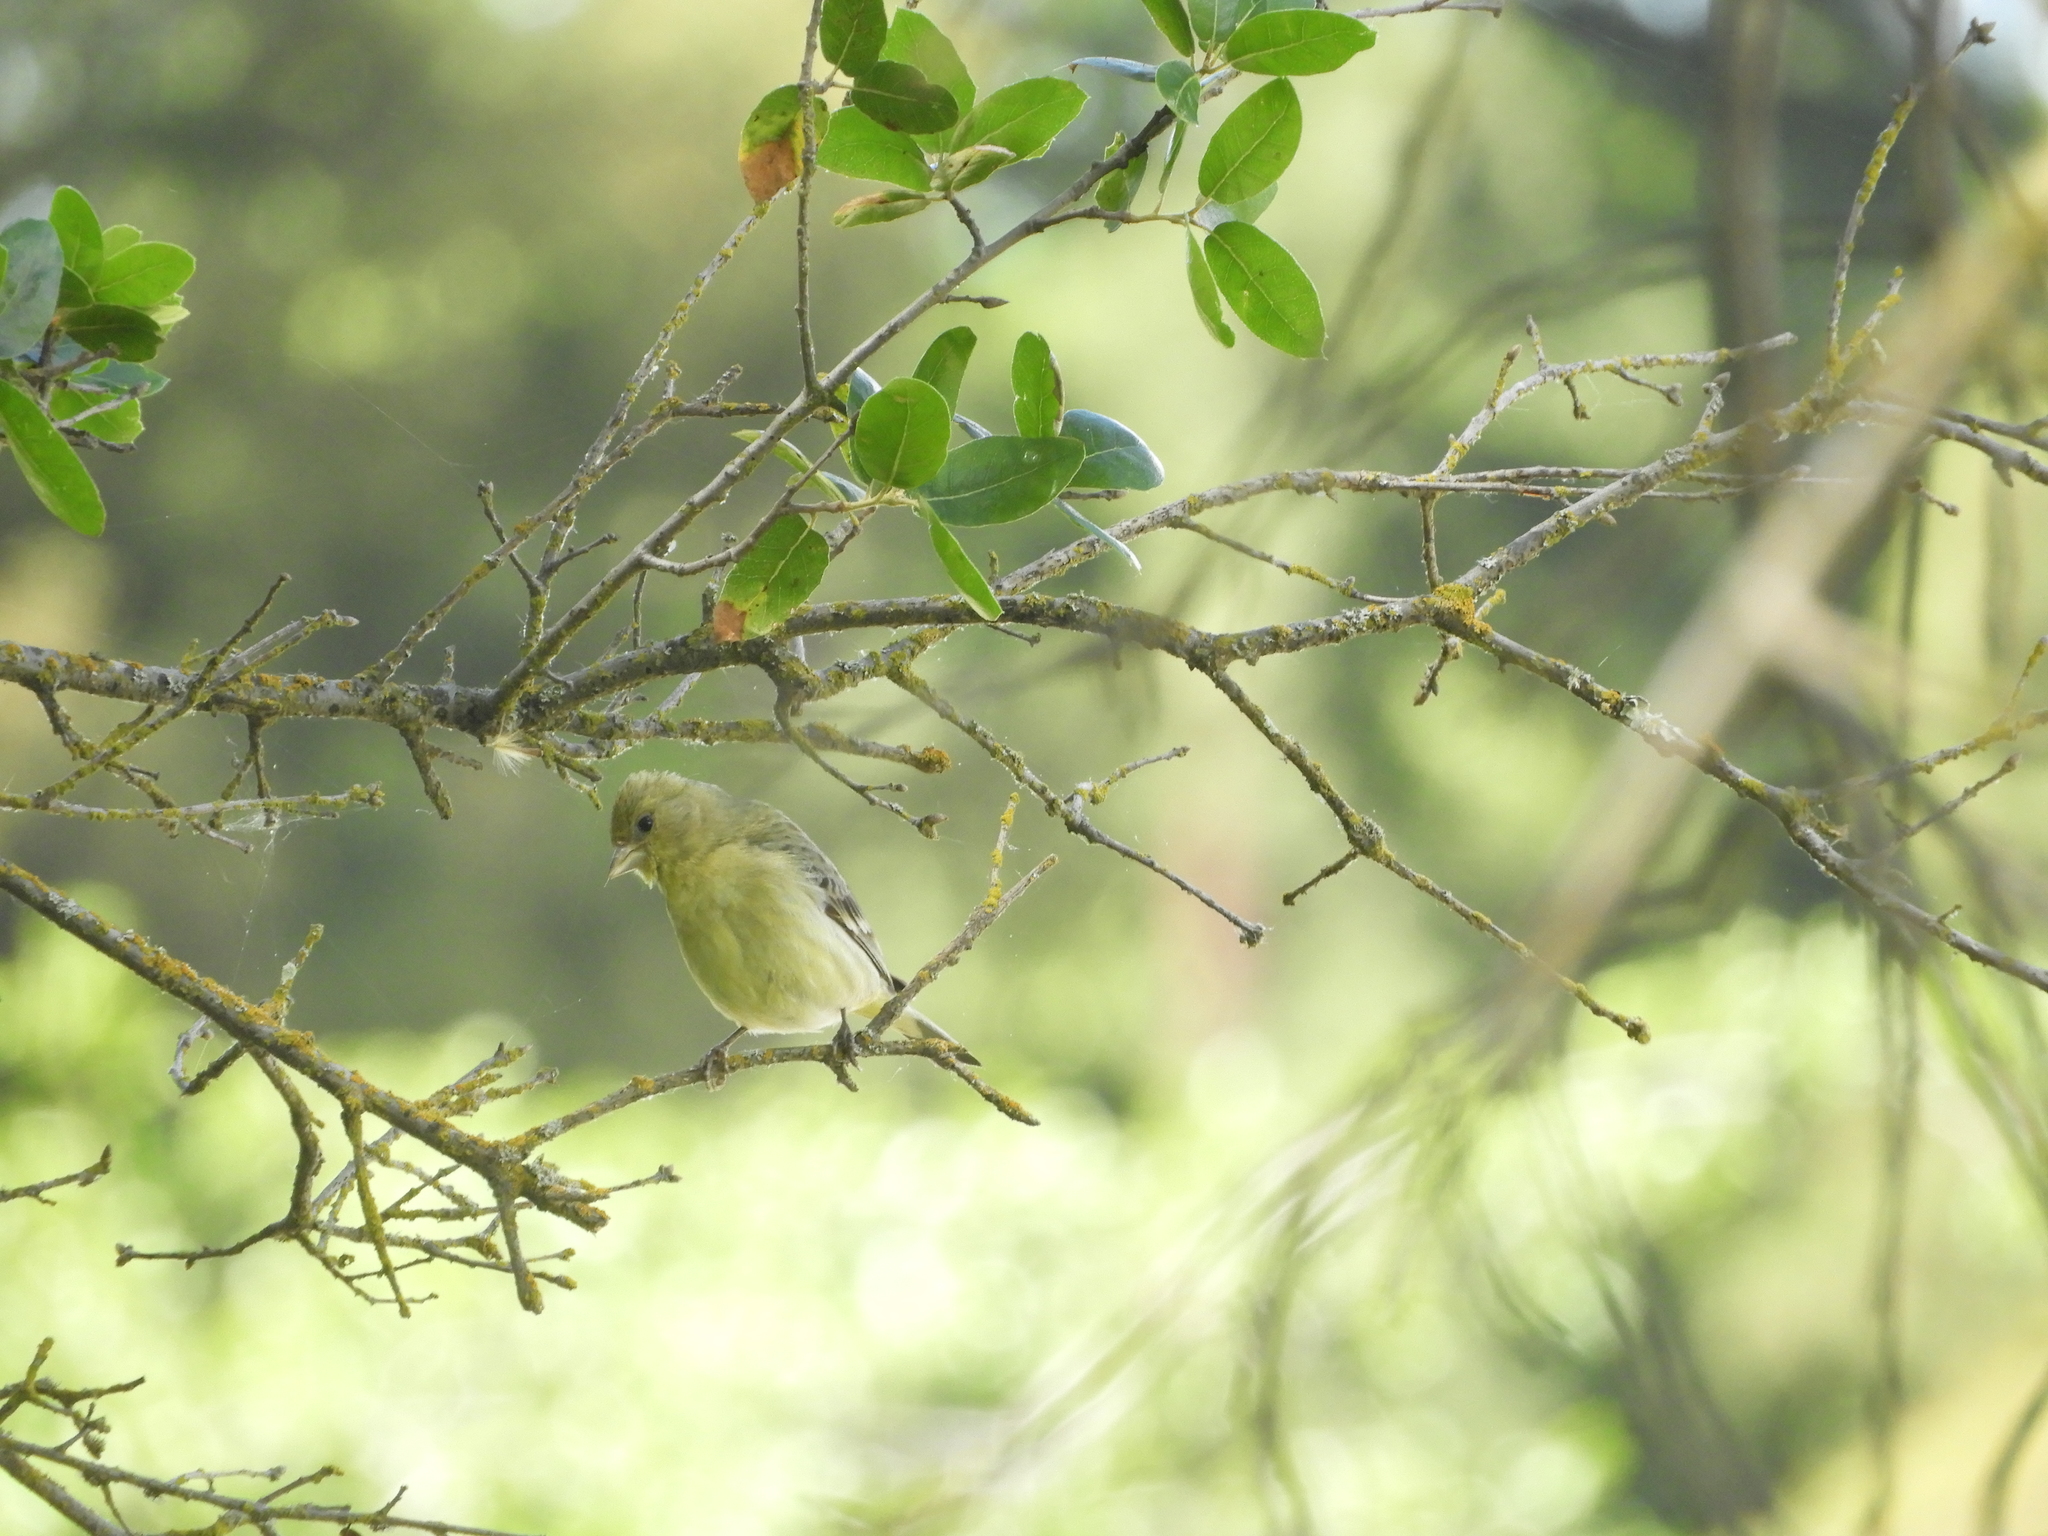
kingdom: Animalia
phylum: Chordata
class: Aves
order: Passeriformes
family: Fringillidae
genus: Spinus
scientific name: Spinus psaltria
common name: Lesser goldfinch
